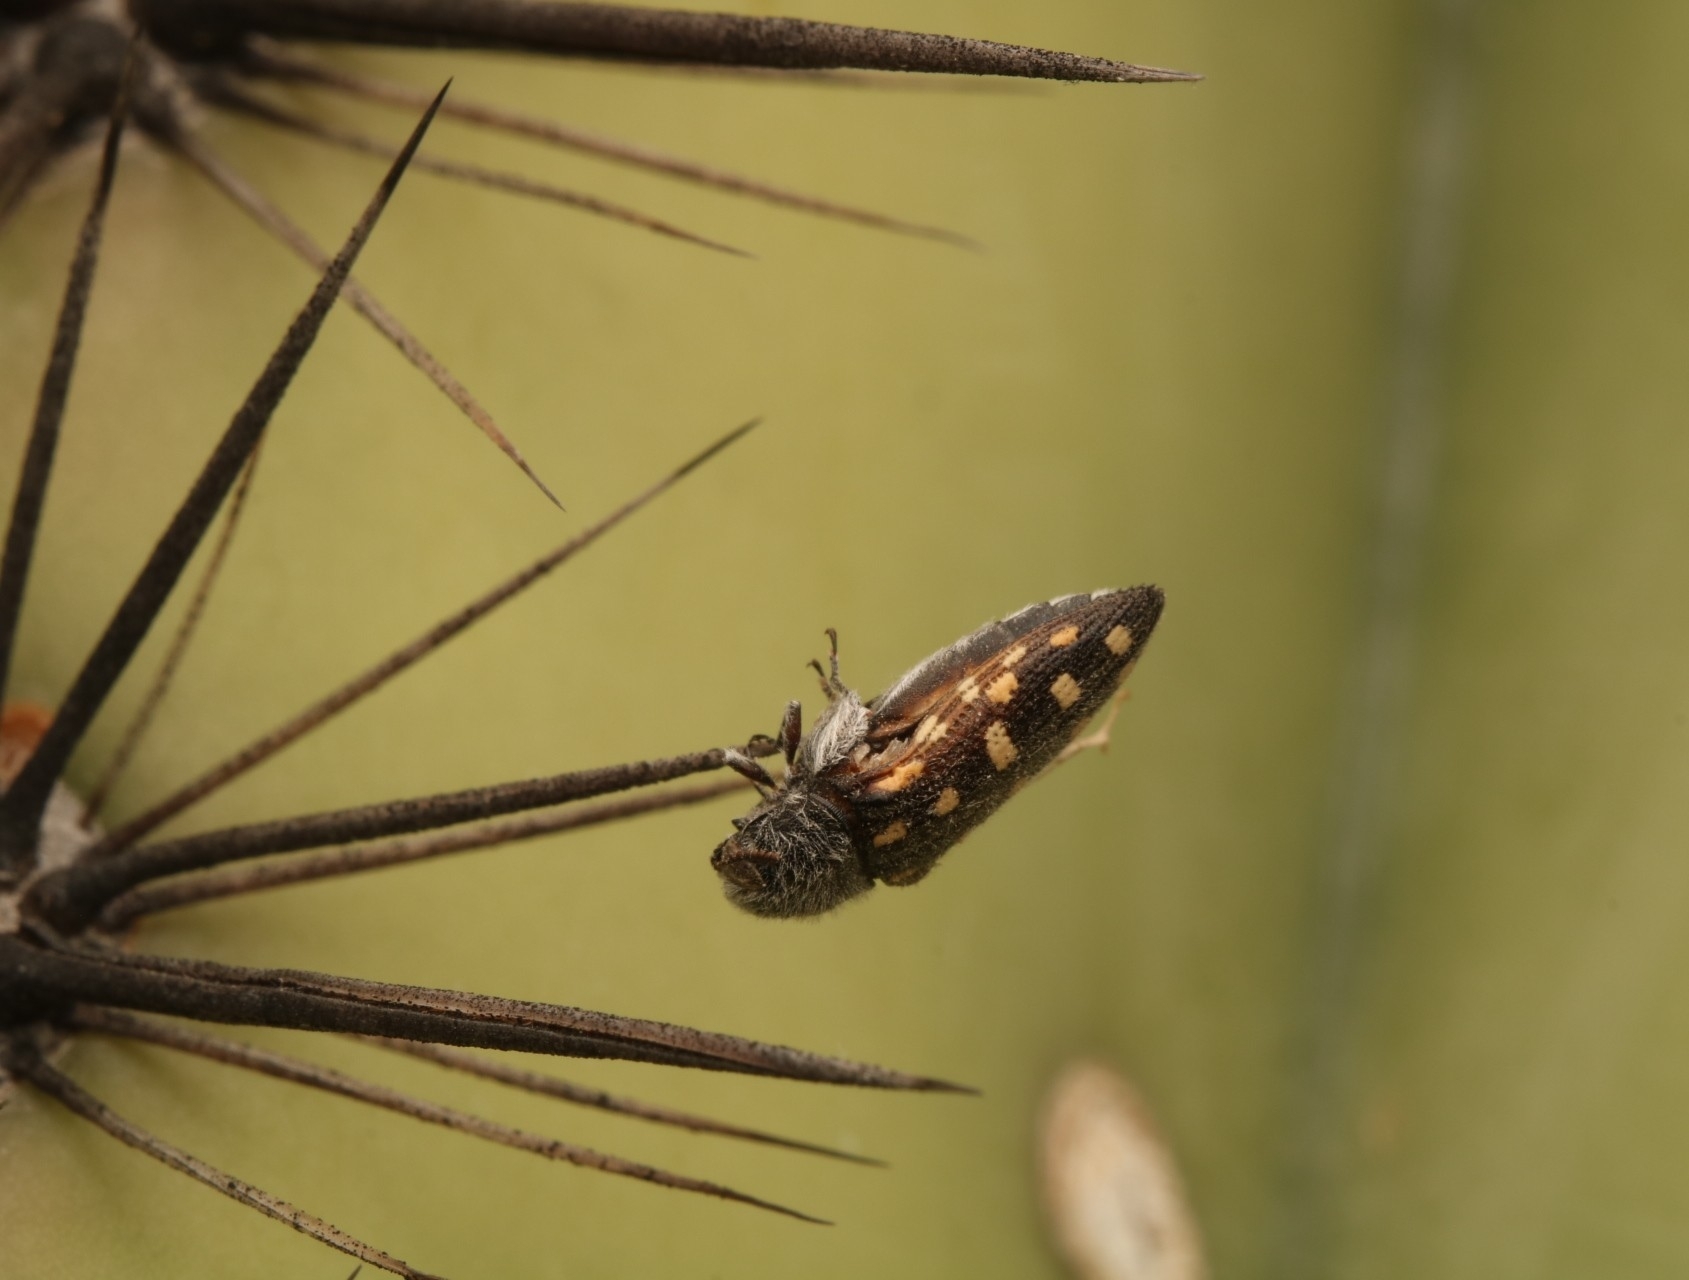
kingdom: Animalia
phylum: Arthropoda
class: Insecta
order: Coleoptera
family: Buprestidae
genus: Acmaeodera
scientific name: Acmaeodera delumbis
